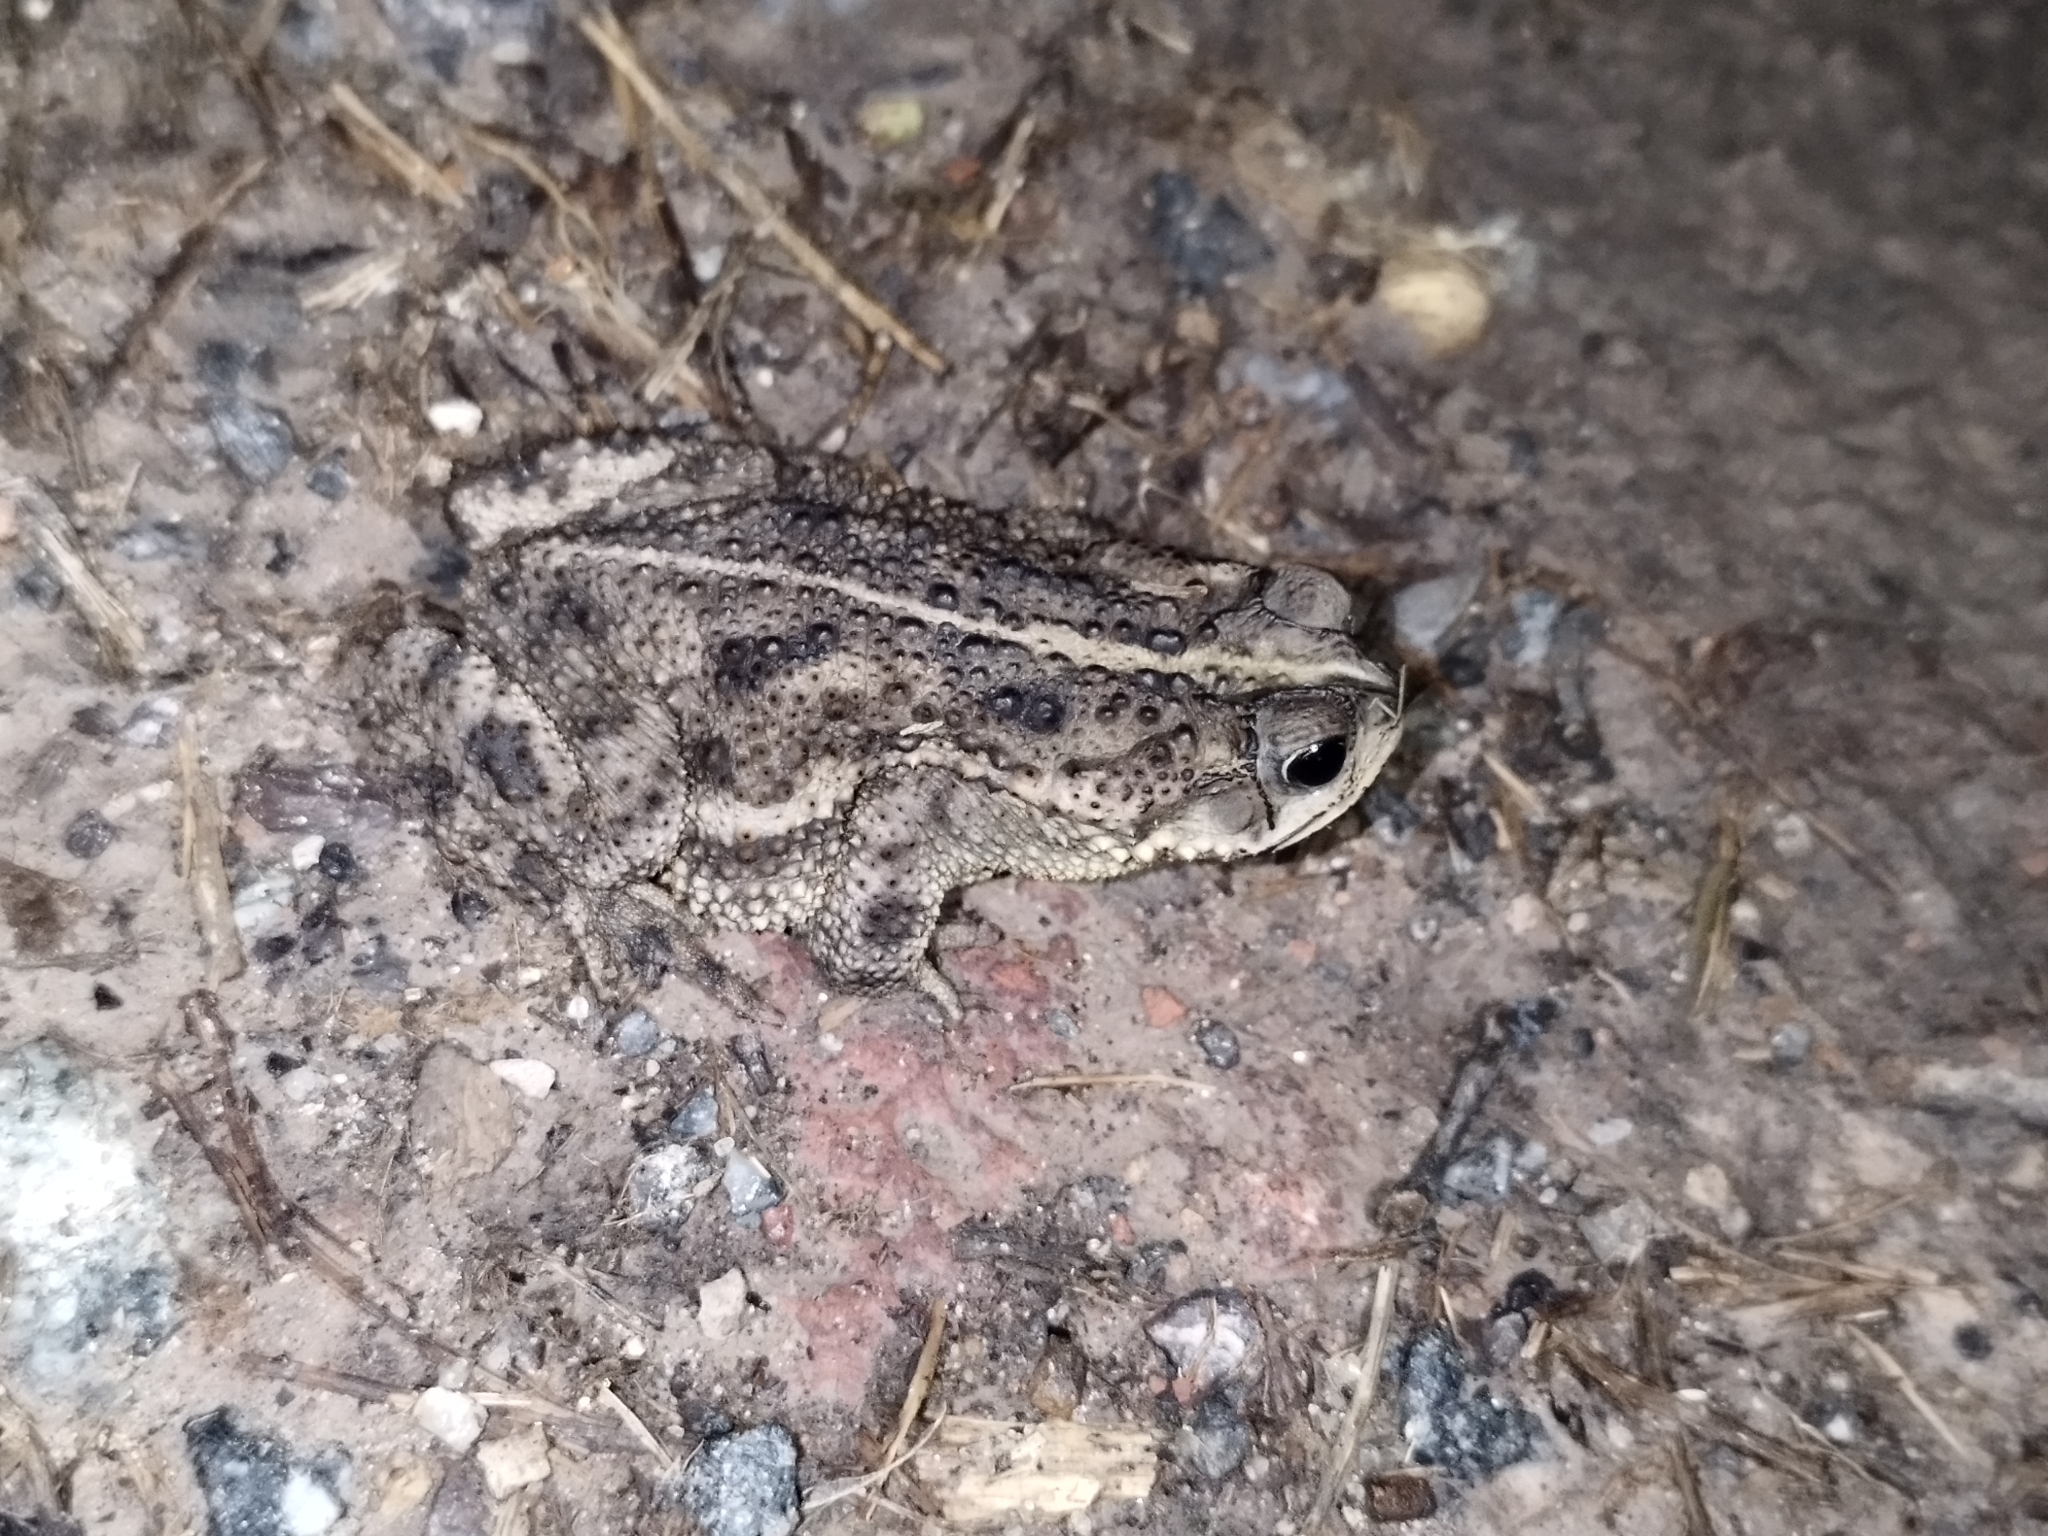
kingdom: Animalia
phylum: Chordata
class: Amphibia
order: Anura
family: Bufonidae
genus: Rhinella
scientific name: Rhinella dorbignyi
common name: D´orbigny’s toad
